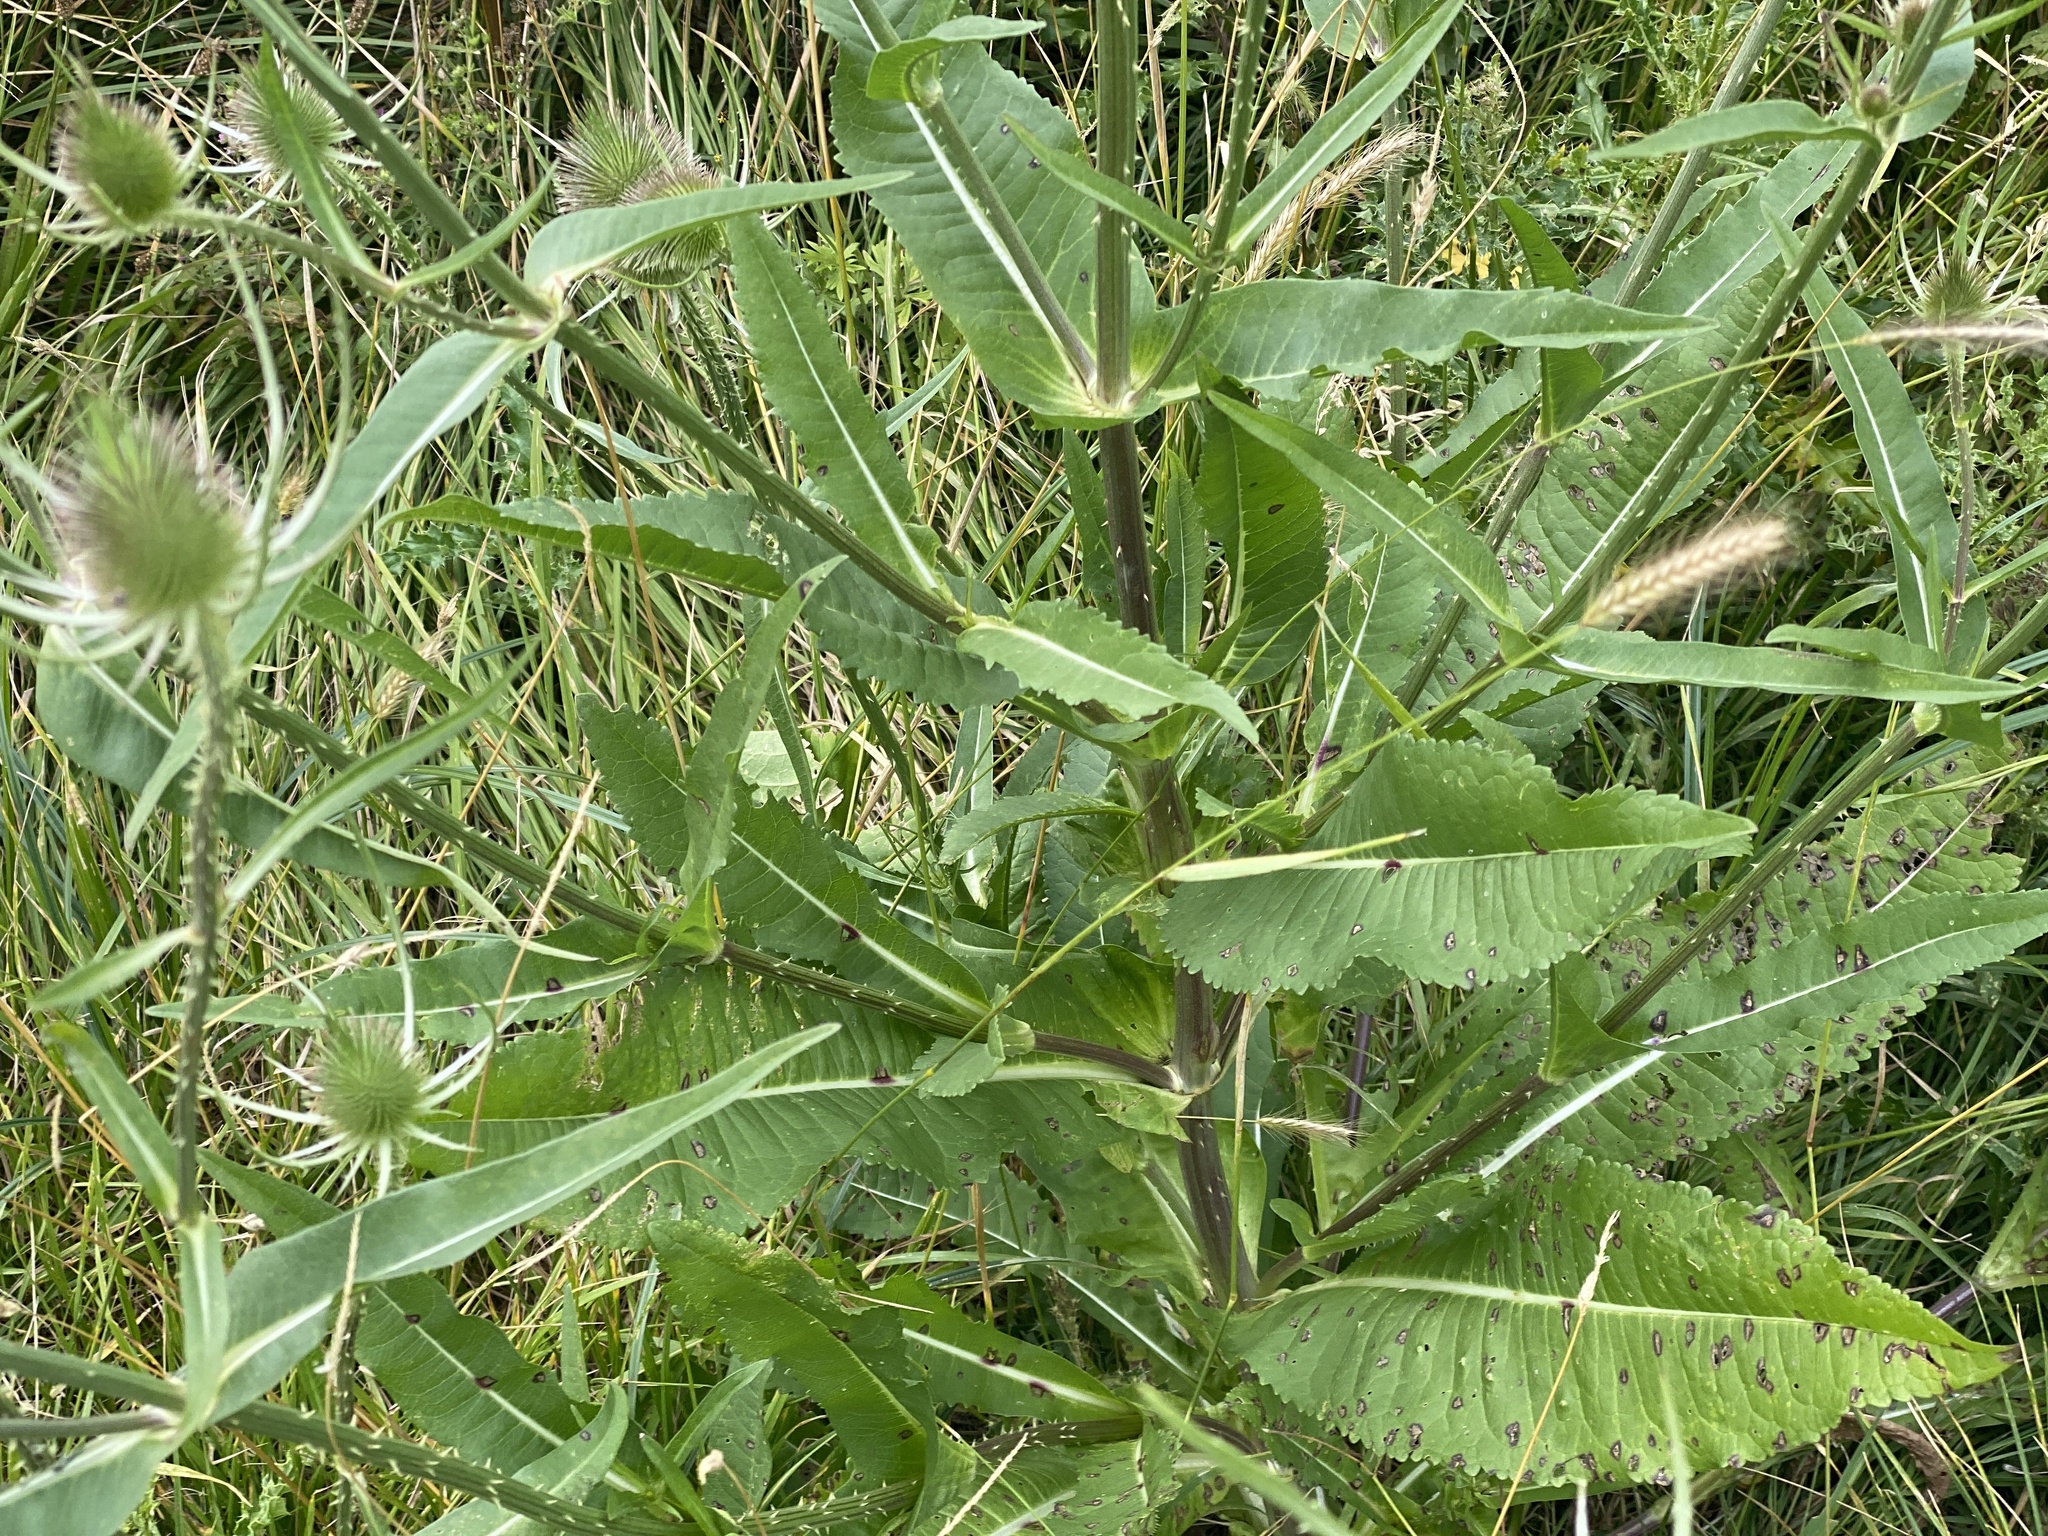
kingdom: Plantae
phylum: Tracheophyta
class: Magnoliopsida
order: Dipsacales
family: Caprifoliaceae
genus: Dipsacus
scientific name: Dipsacus fullonum
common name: Teasel
